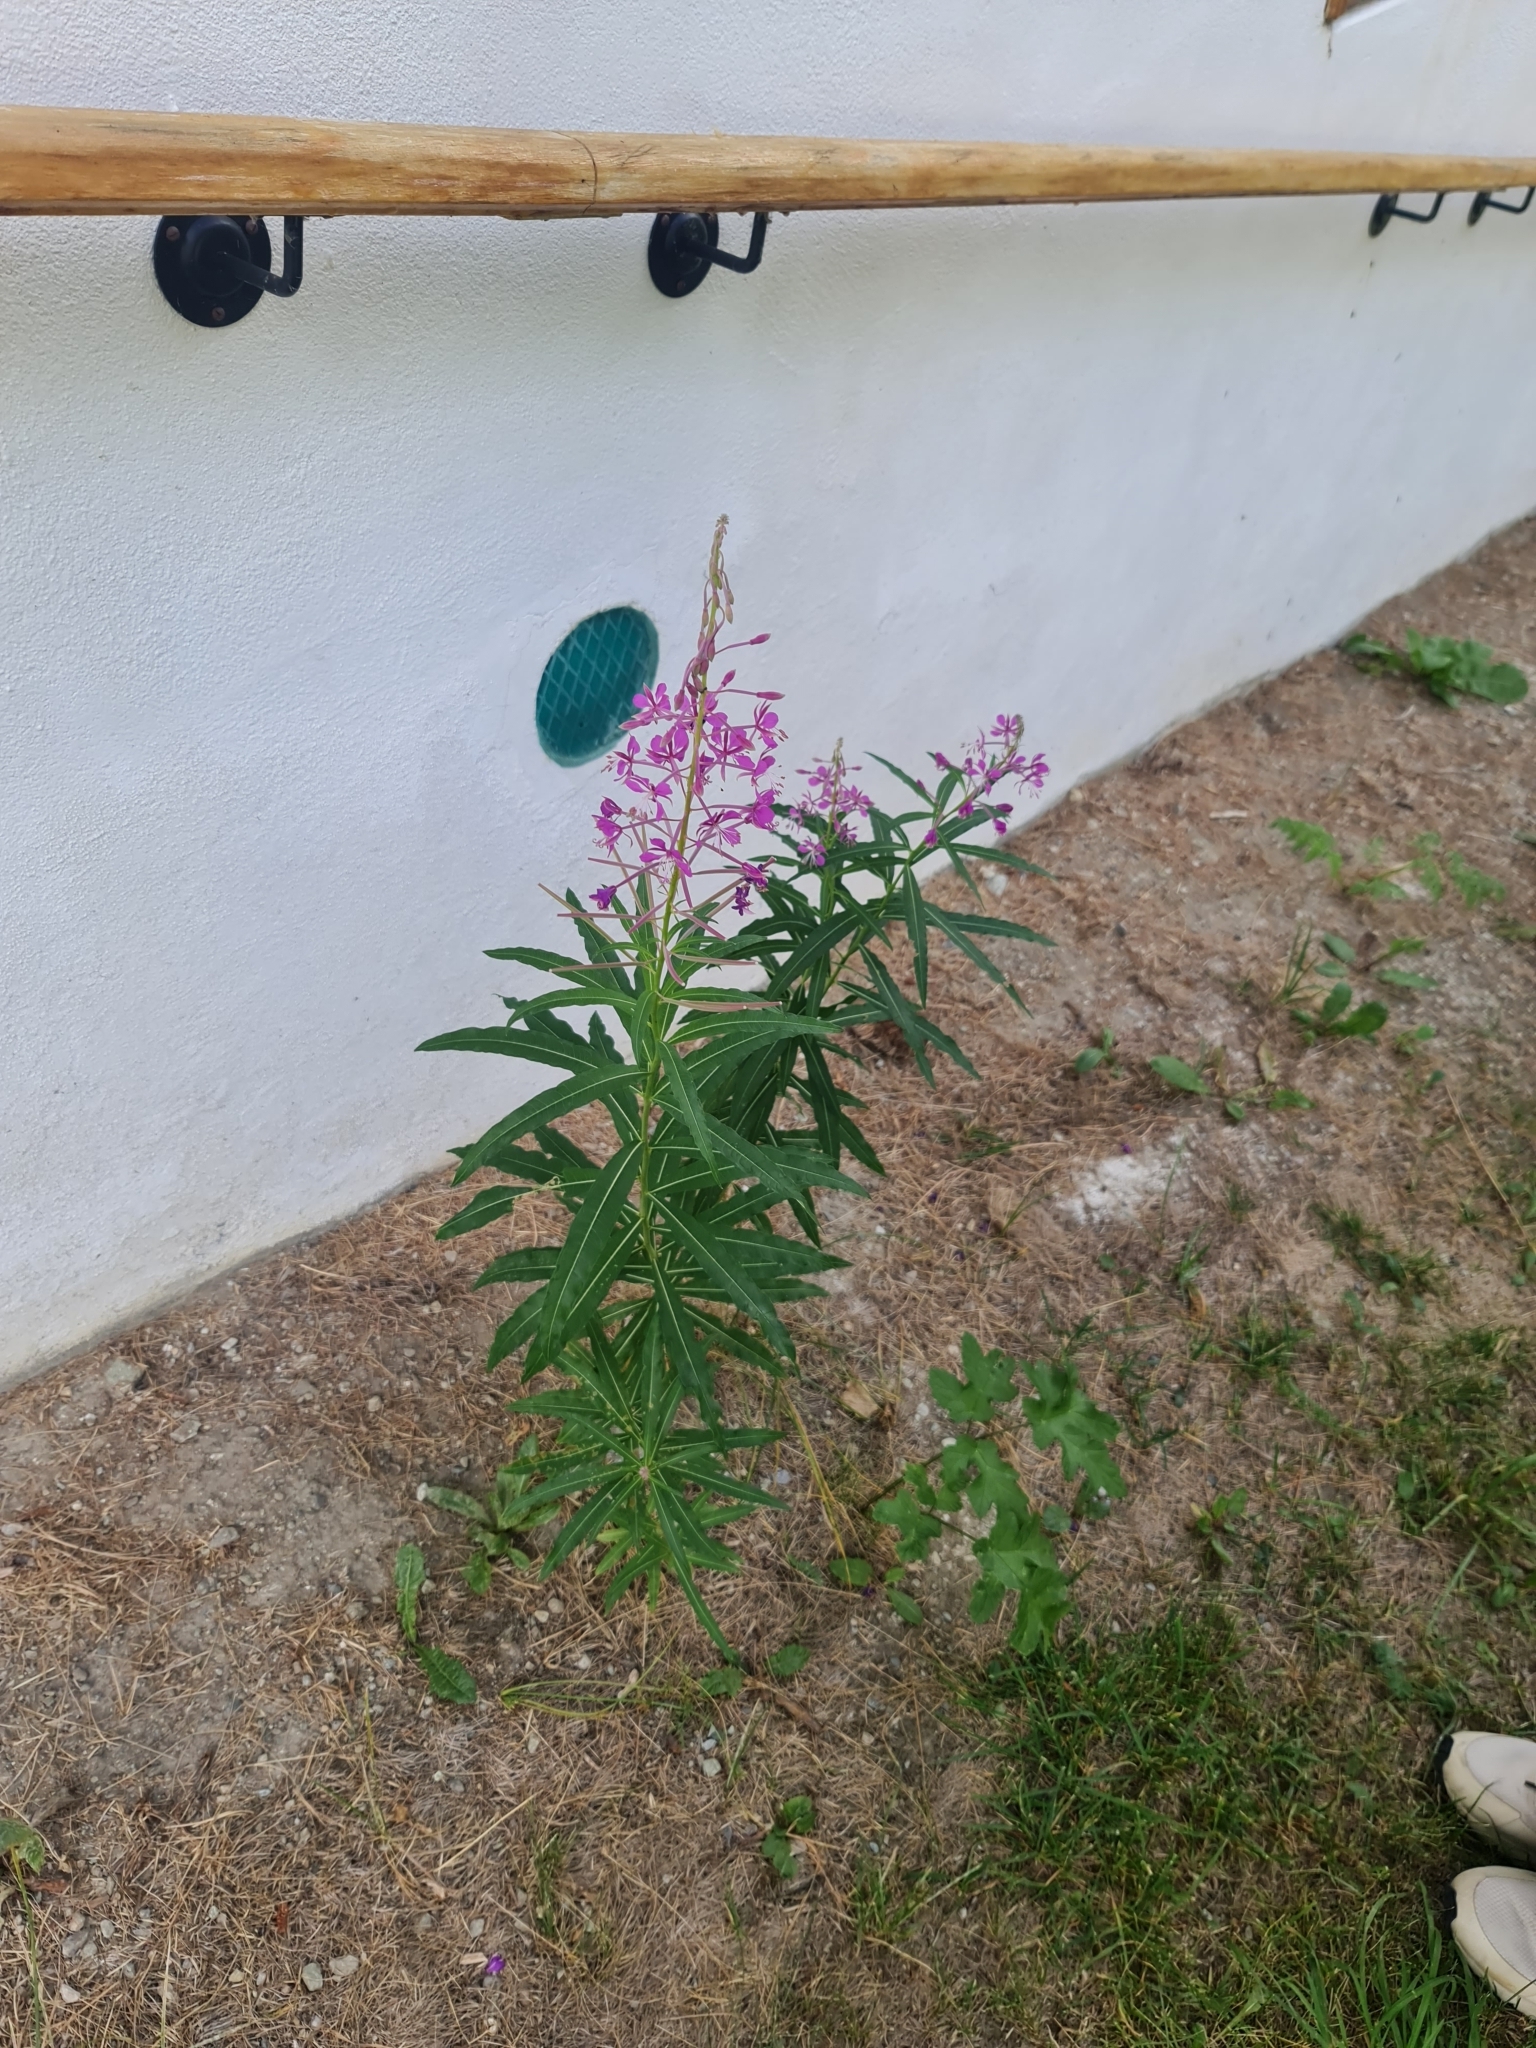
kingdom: Plantae
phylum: Tracheophyta
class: Magnoliopsida
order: Myrtales
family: Onagraceae
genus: Chamaenerion
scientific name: Chamaenerion angustifolium
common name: Fireweed
